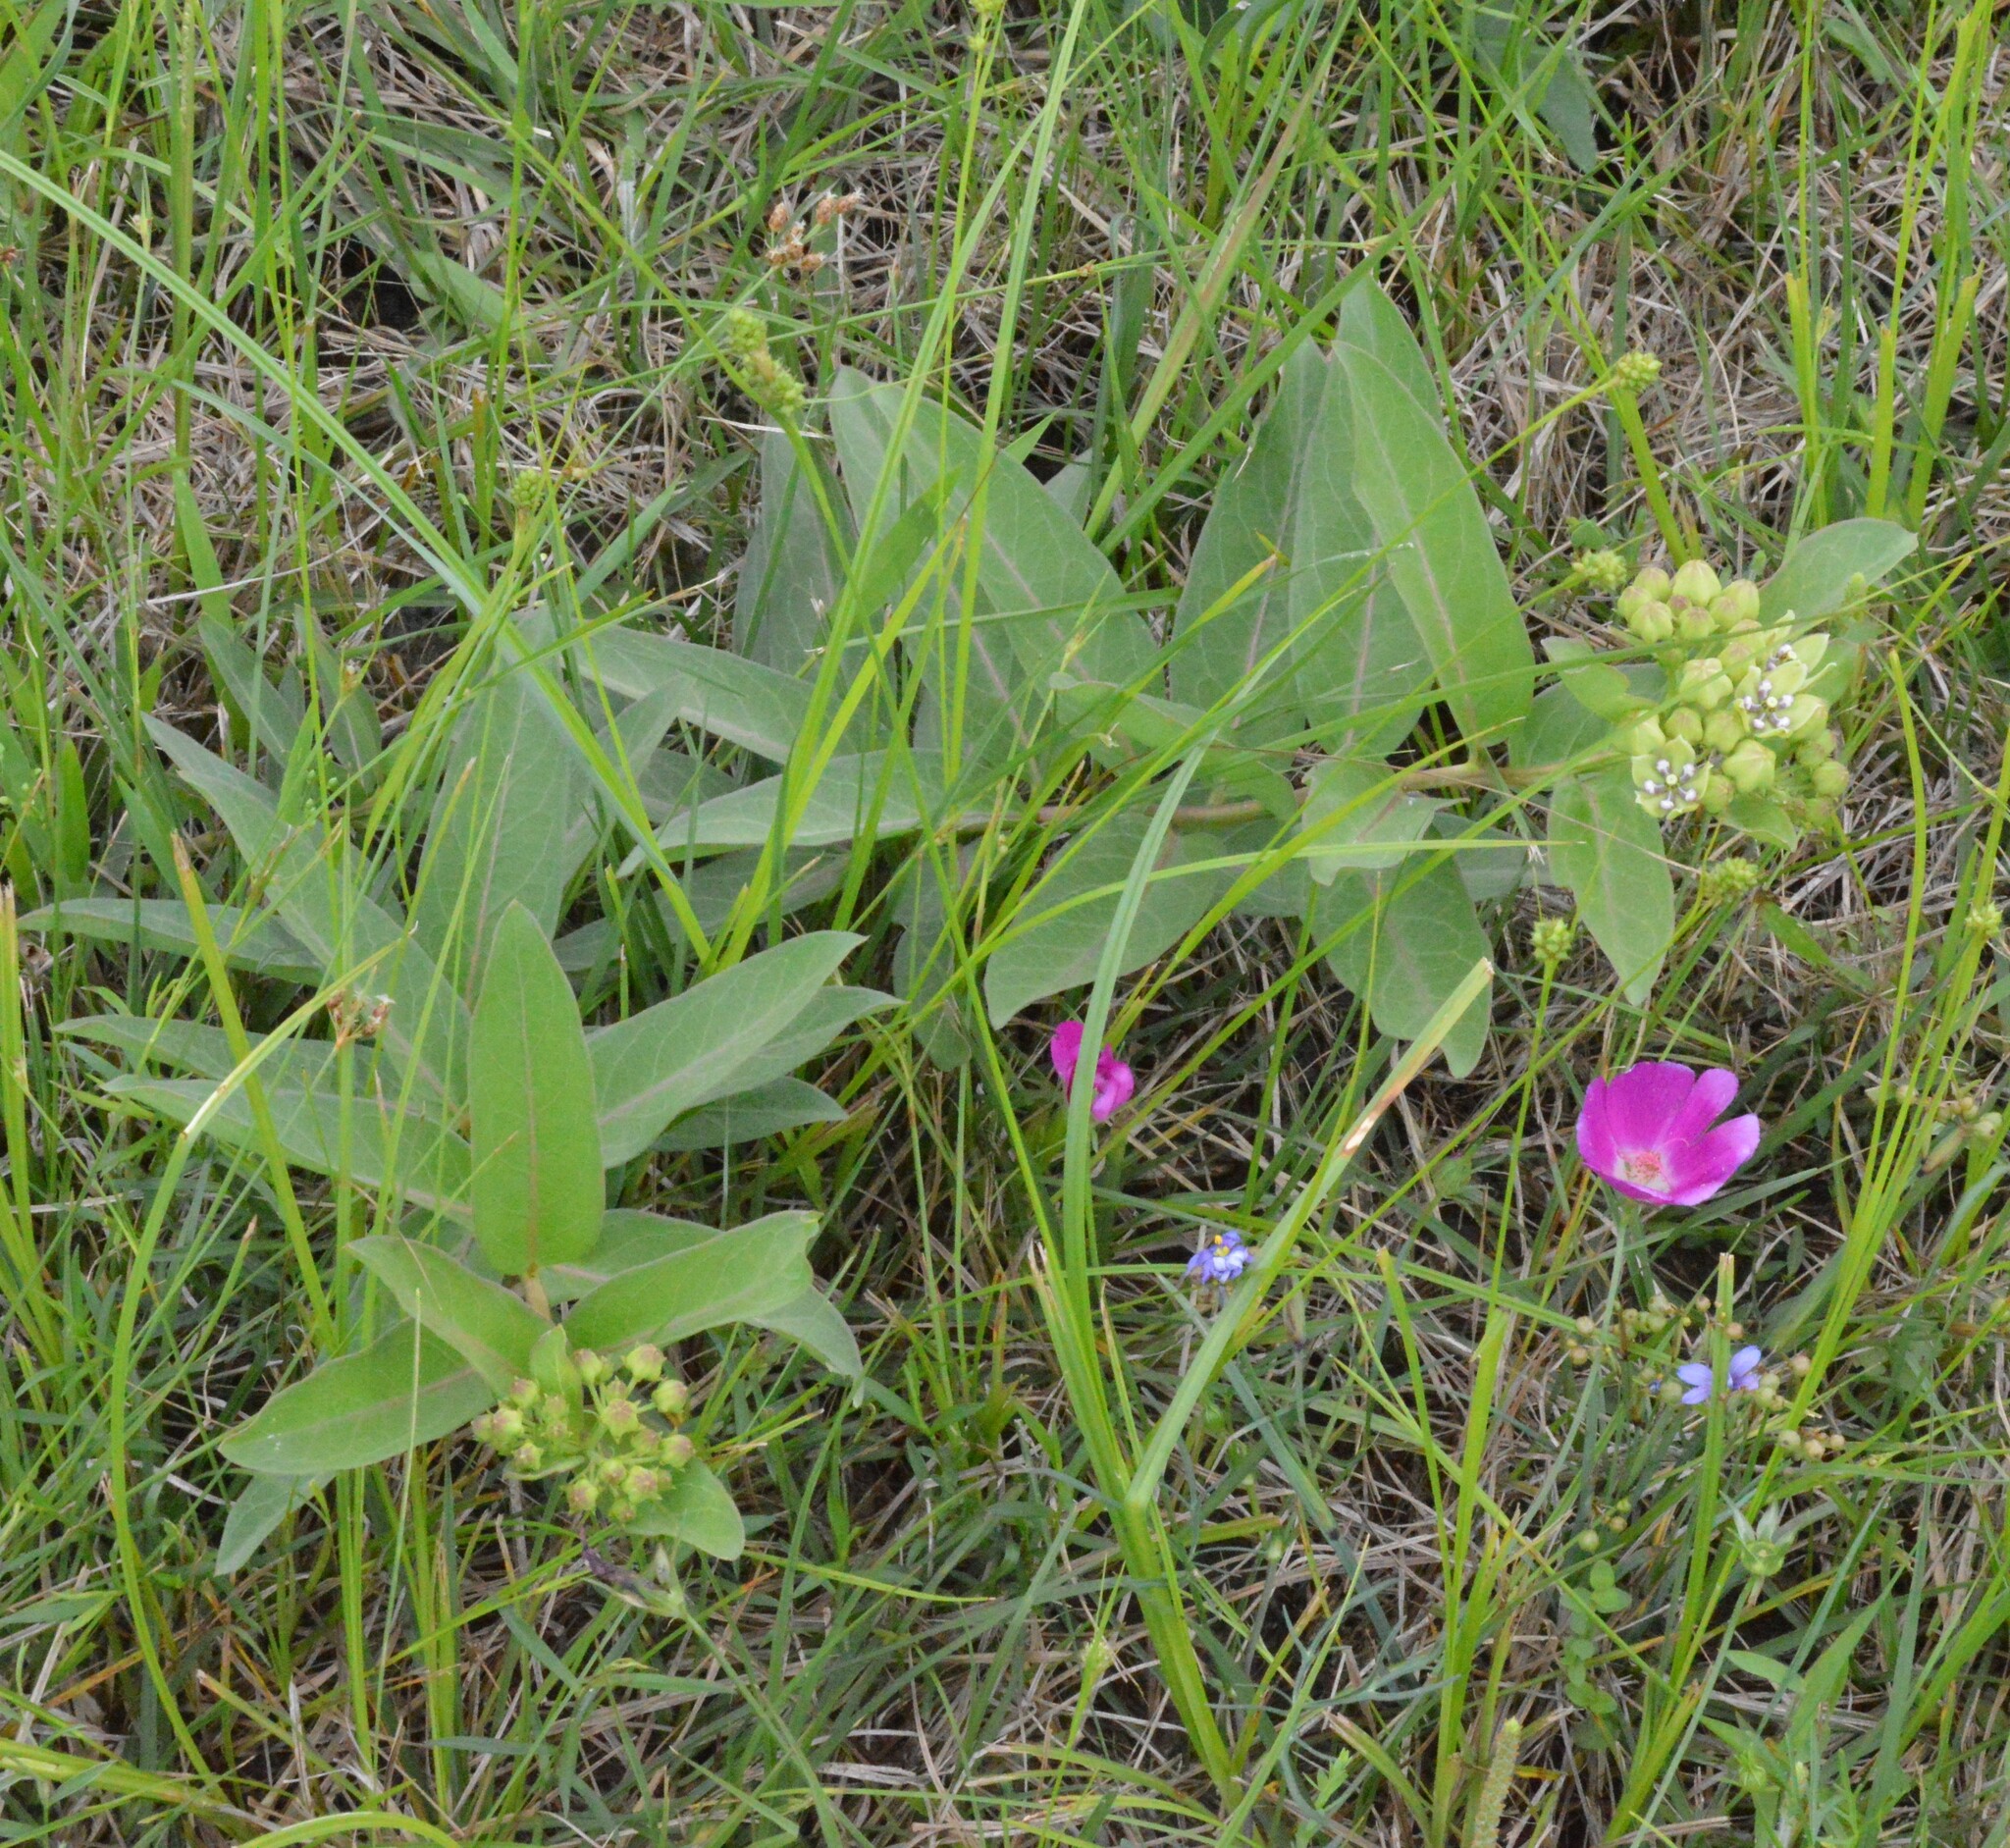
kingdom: Plantae
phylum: Tracheophyta
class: Magnoliopsida
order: Gentianales
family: Apocynaceae
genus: Asclepias
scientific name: Asclepias viridis
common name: Antelope-horns
